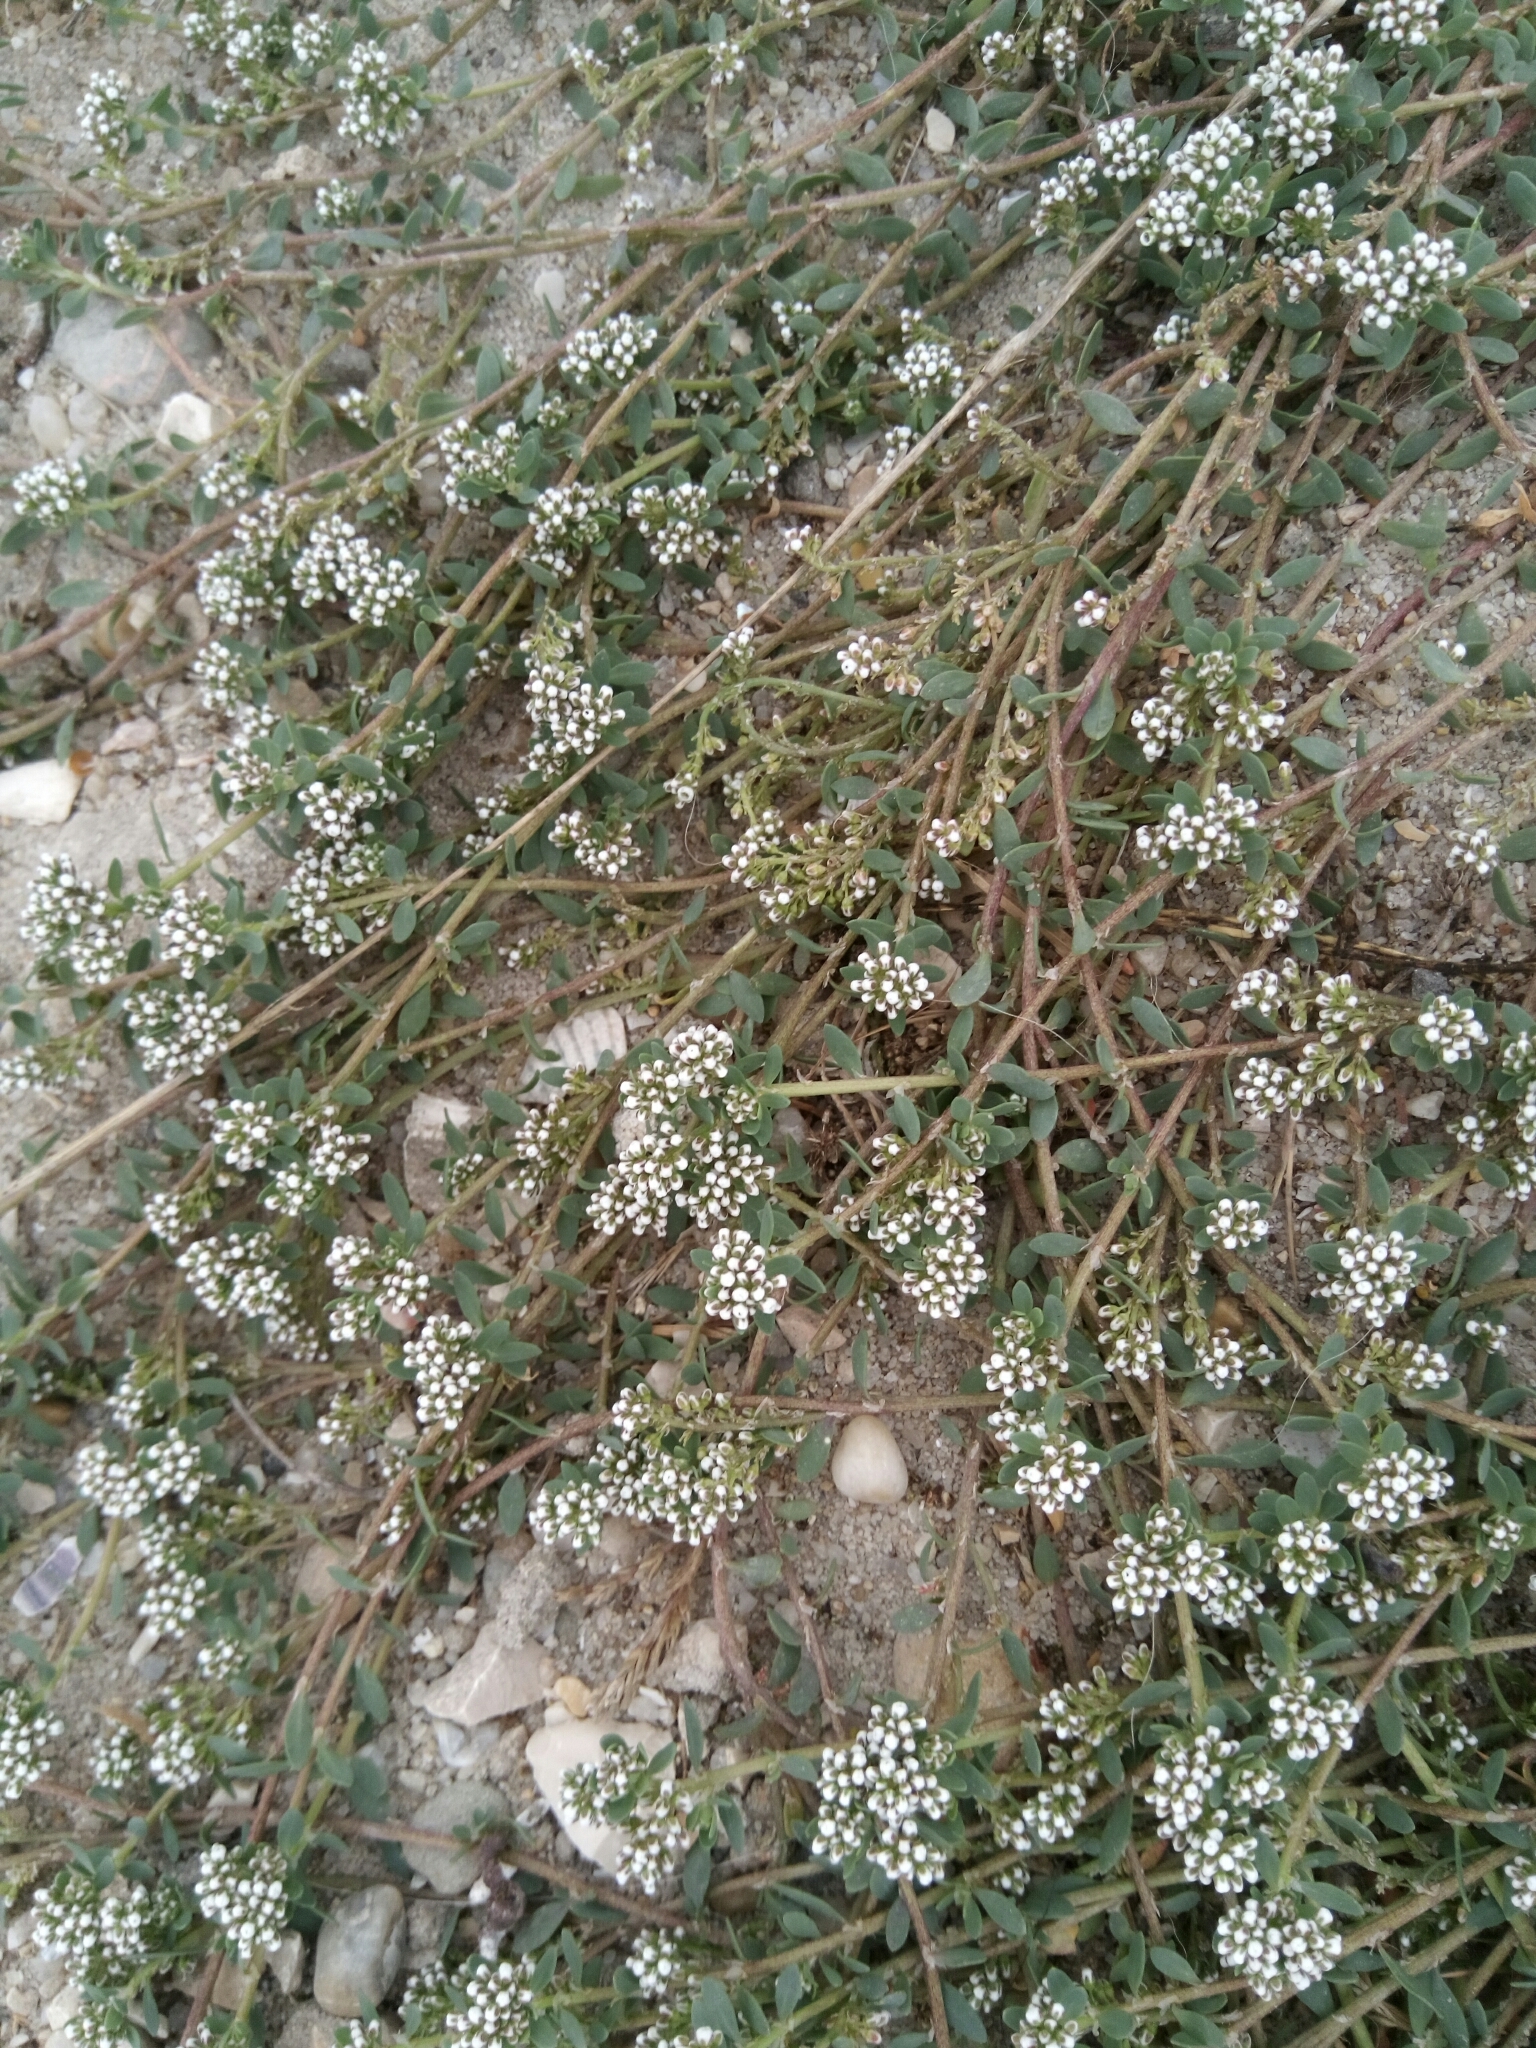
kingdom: Plantae
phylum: Tracheophyta
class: Magnoliopsida
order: Caryophyllales
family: Caryophyllaceae
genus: Corrigiola
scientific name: Corrigiola litoralis
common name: Strapwort
